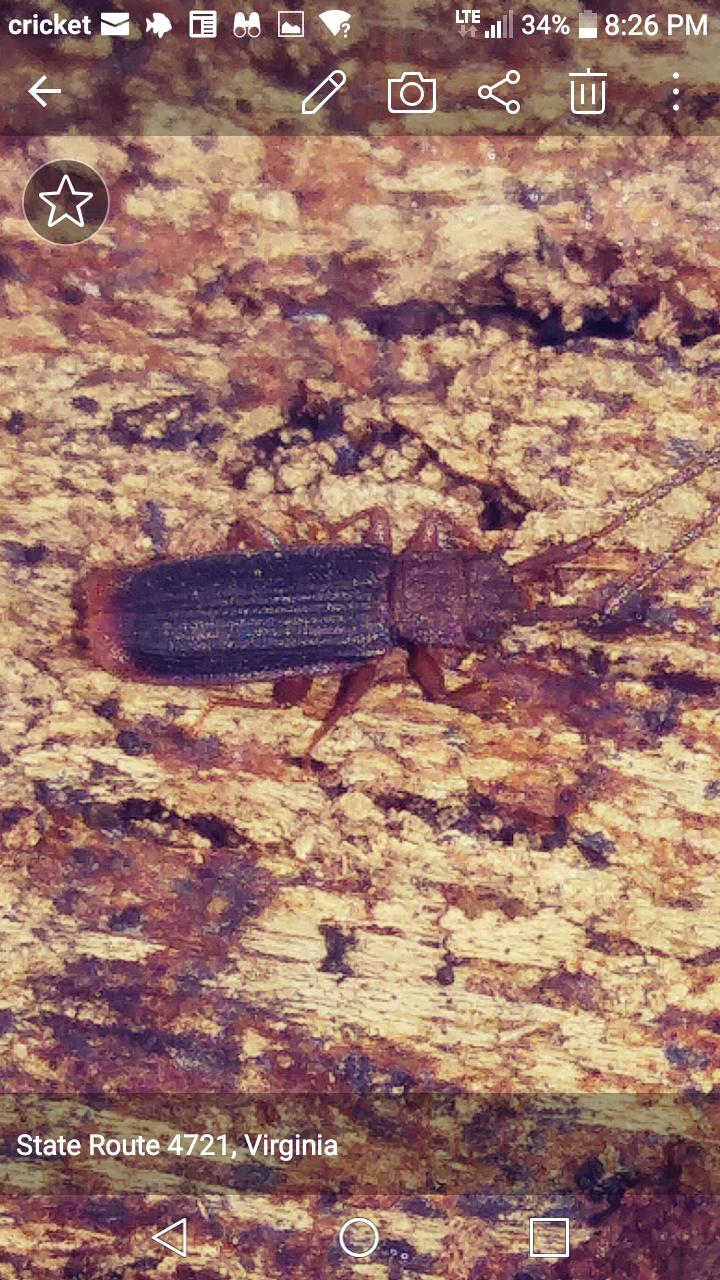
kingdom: Animalia
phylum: Arthropoda
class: Insecta
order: Coleoptera
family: Silvanidae
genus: Uleiota
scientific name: Uleiota dubia
